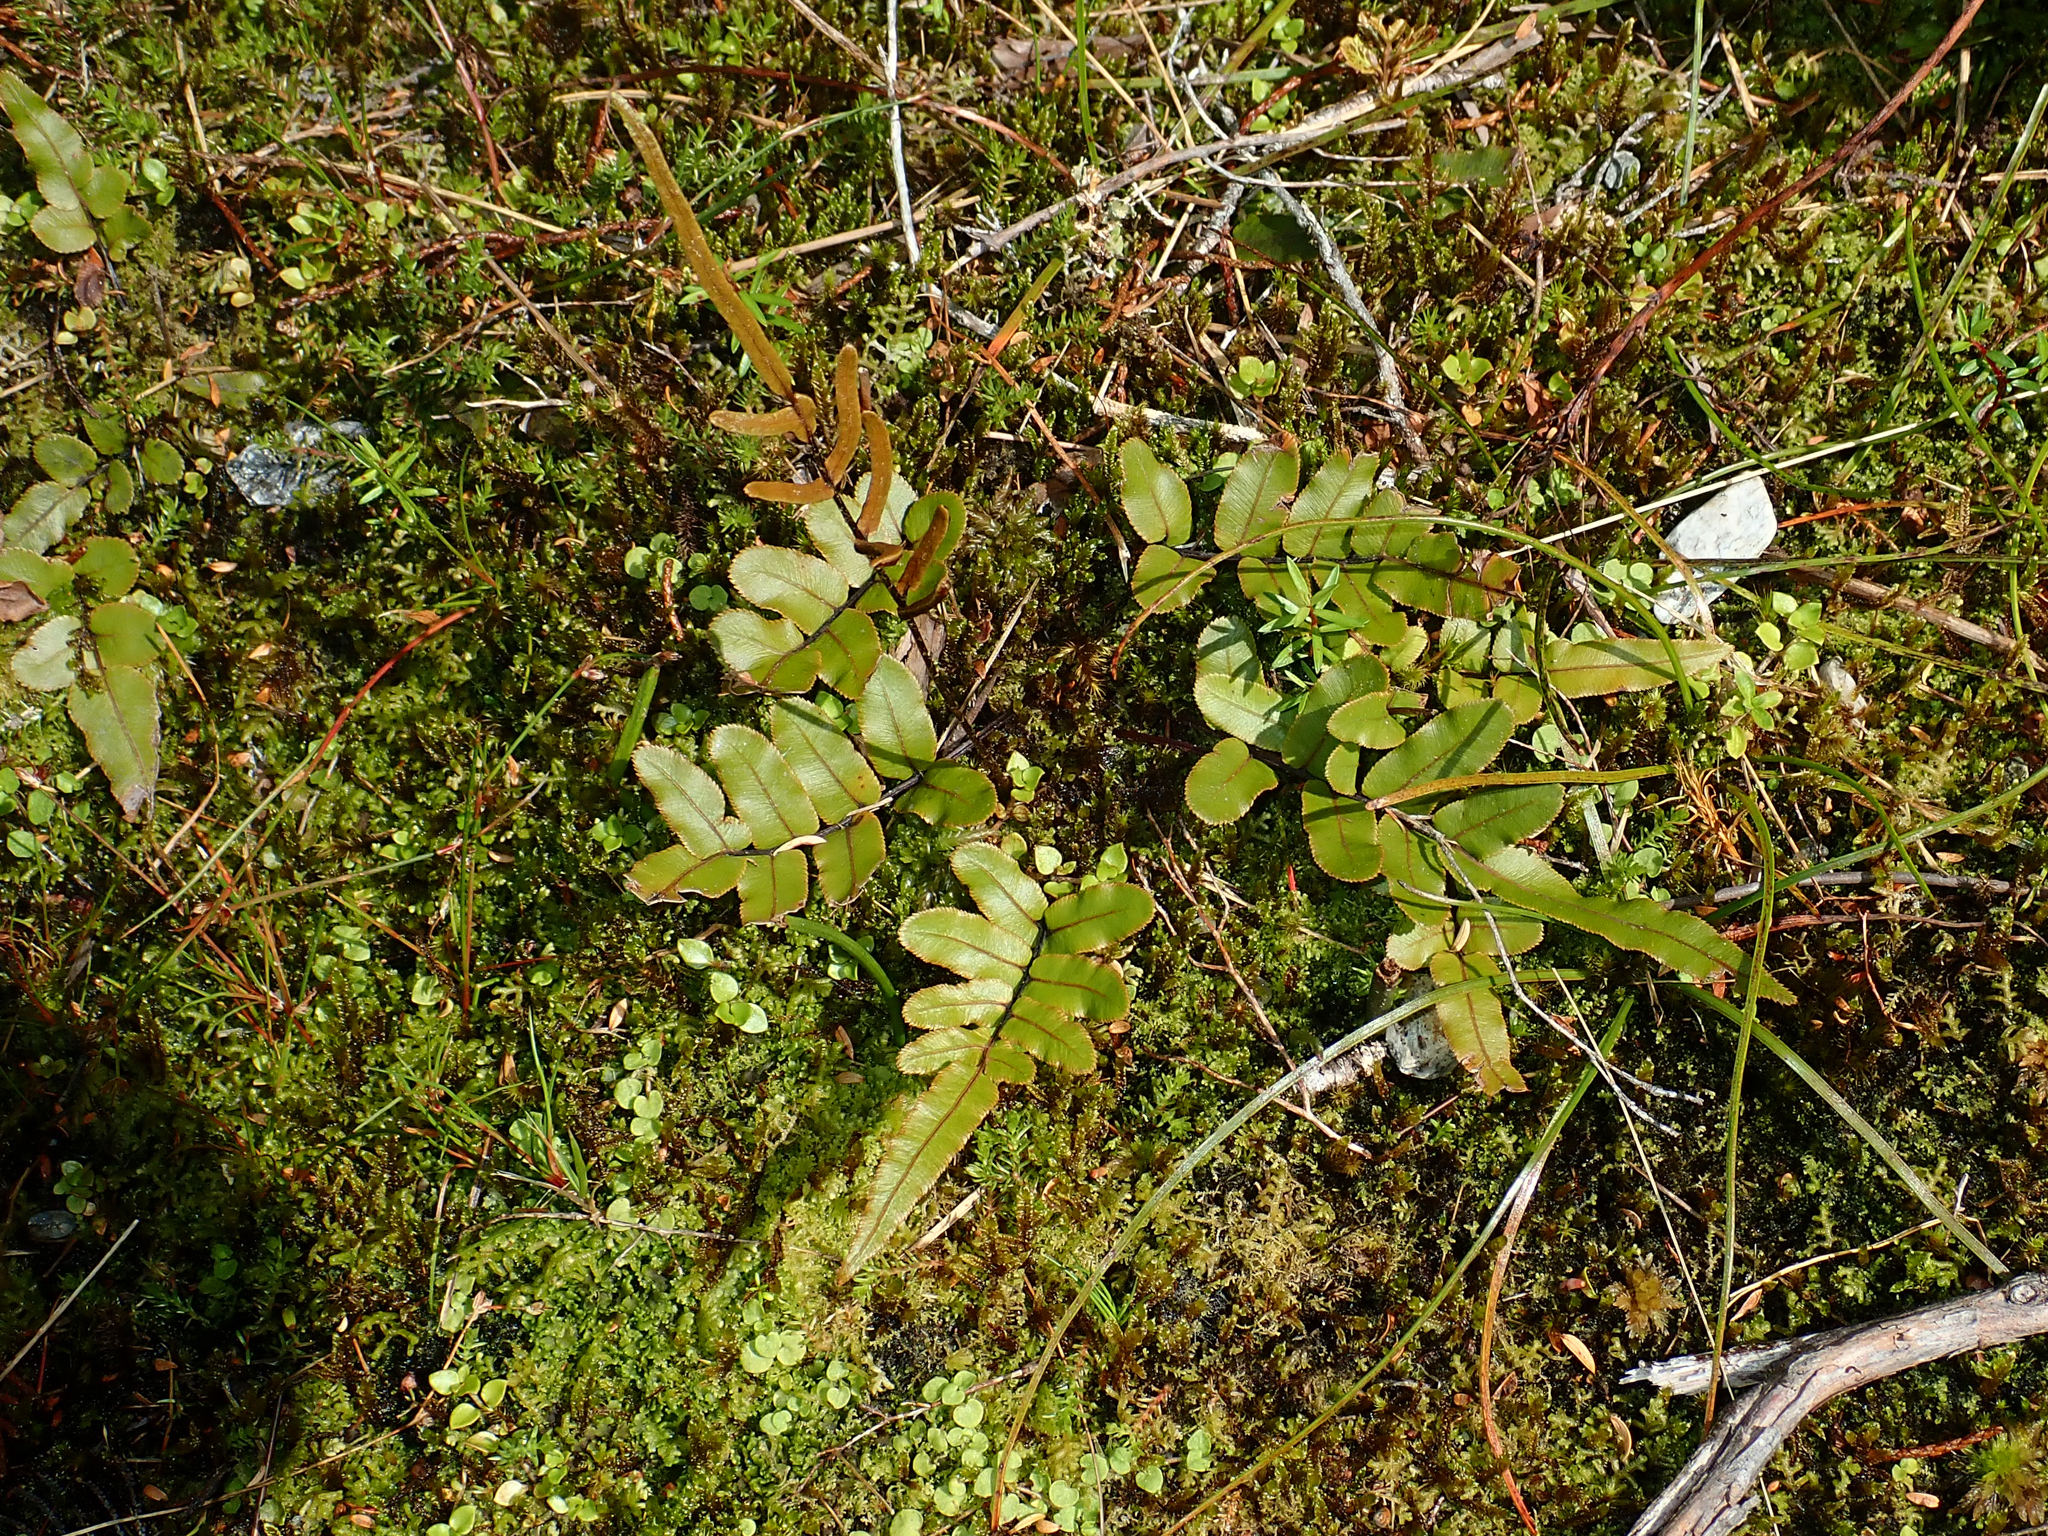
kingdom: Plantae
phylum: Tracheophyta
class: Polypodiopsida
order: Polypodiales
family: Blechnaceae
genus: Parablechnum
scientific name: Parablechnum procerum
